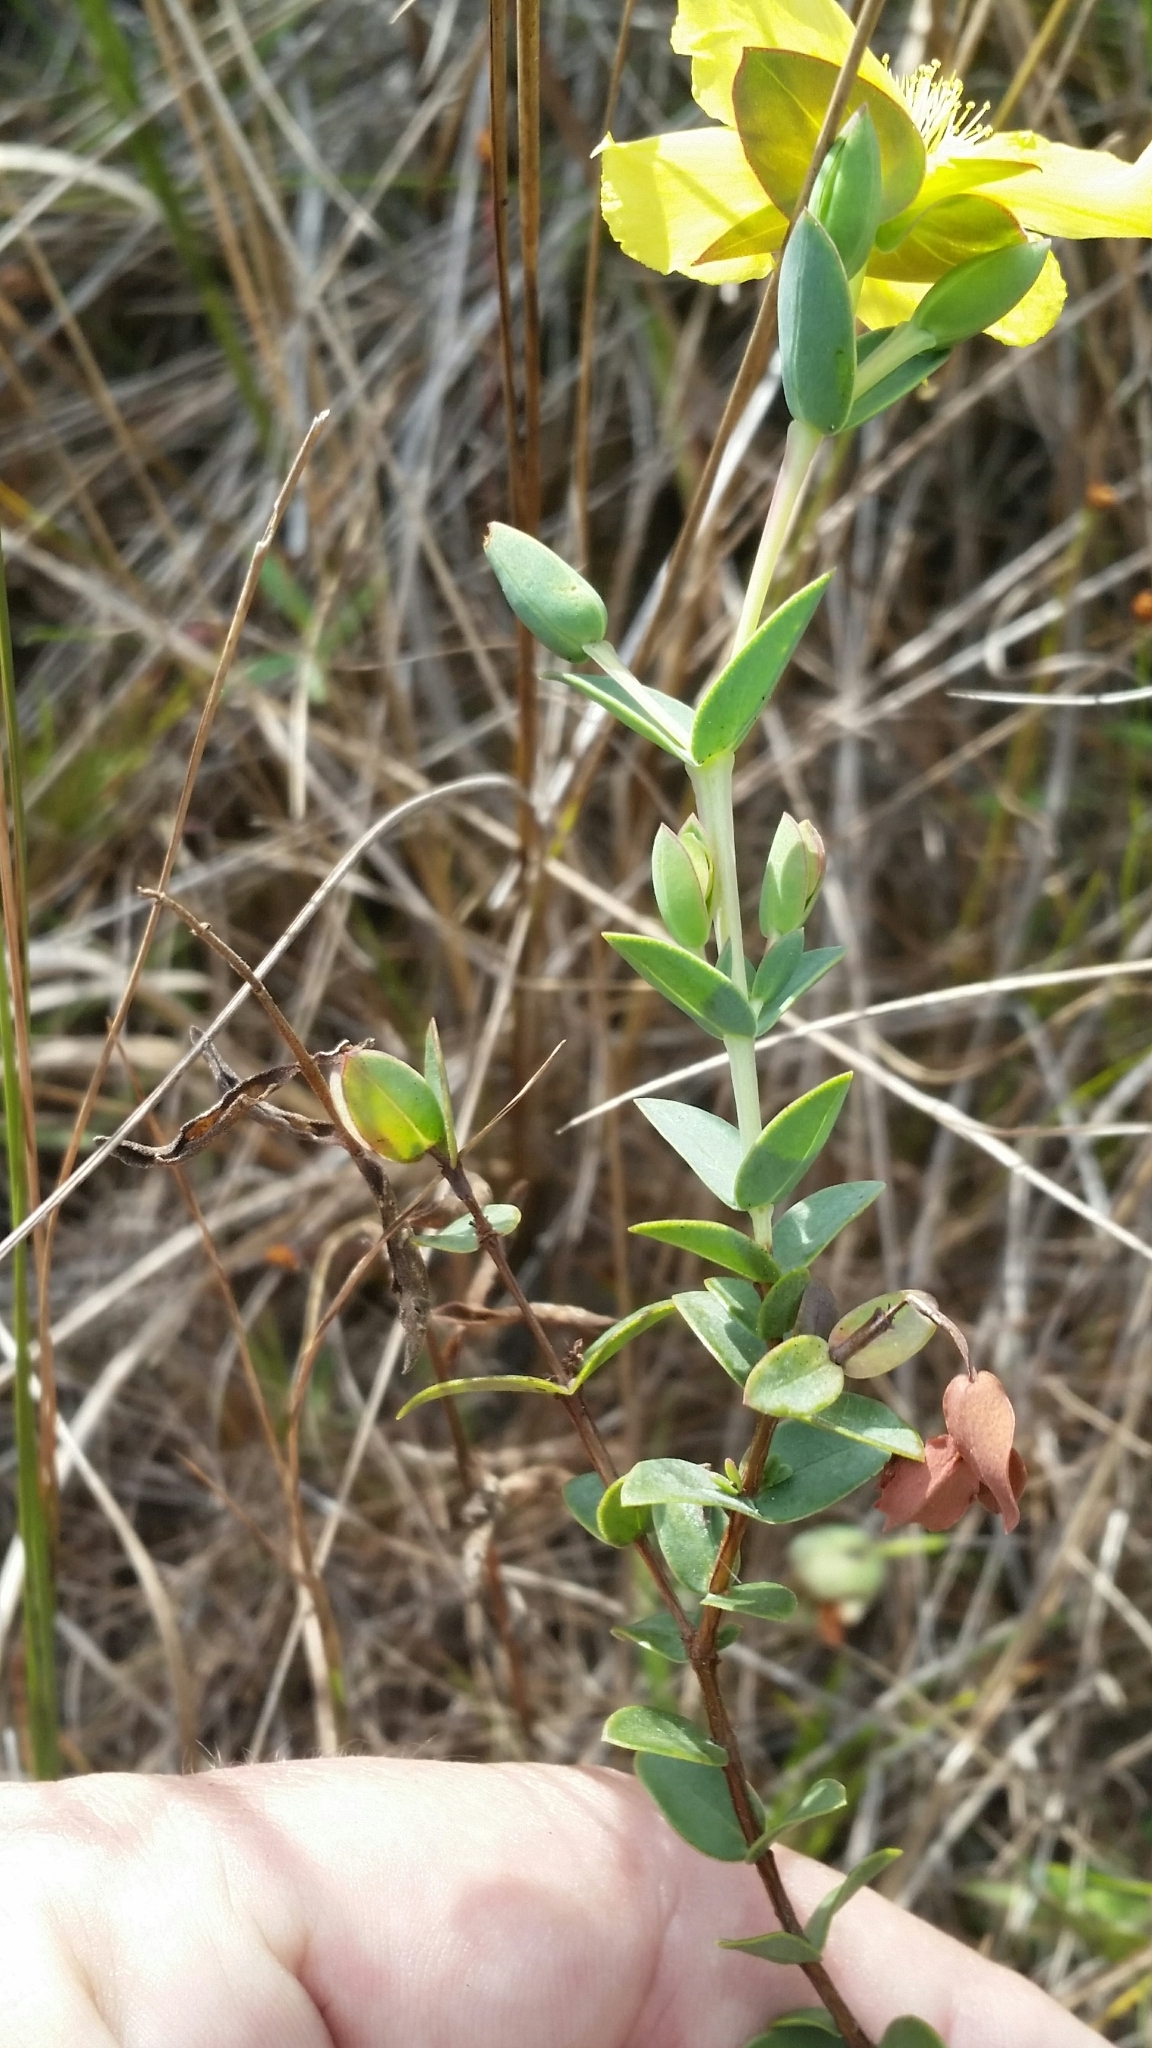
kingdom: Plantae
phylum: Tracheophyta
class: Magnoliopsida
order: Malpighiales
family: Hypericaceae
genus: Hypericum
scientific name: Hypericum tetrapetalum
